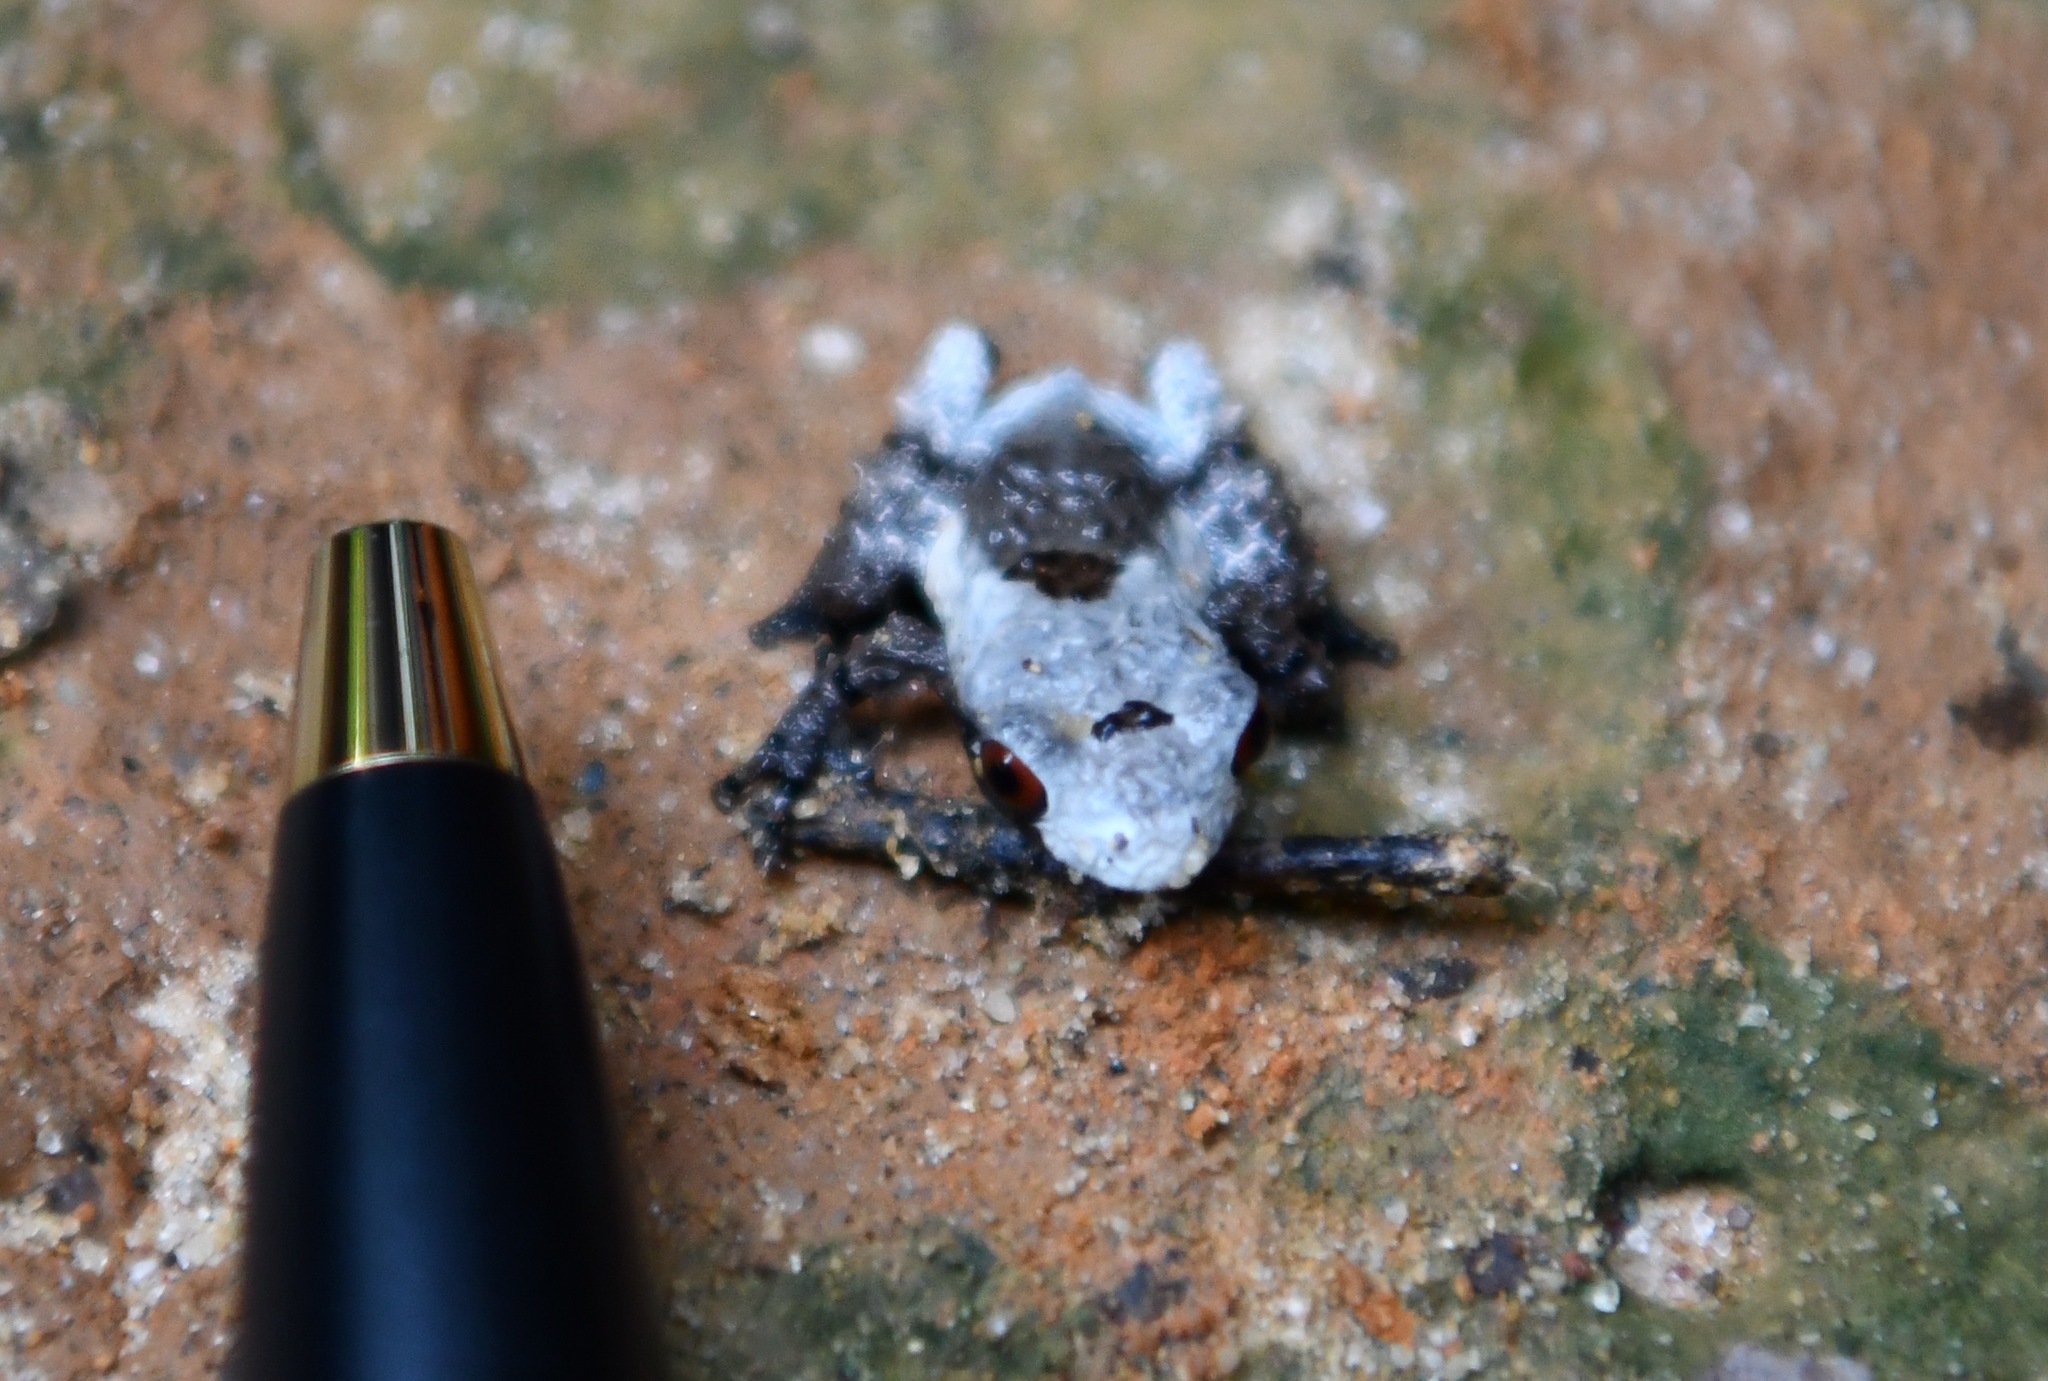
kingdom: Animalia
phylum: Chordata
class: Amphibia
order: Anura
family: Rhacophoridae
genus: Theloderma
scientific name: Theloderma baibungense
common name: Baibung small treefrog
